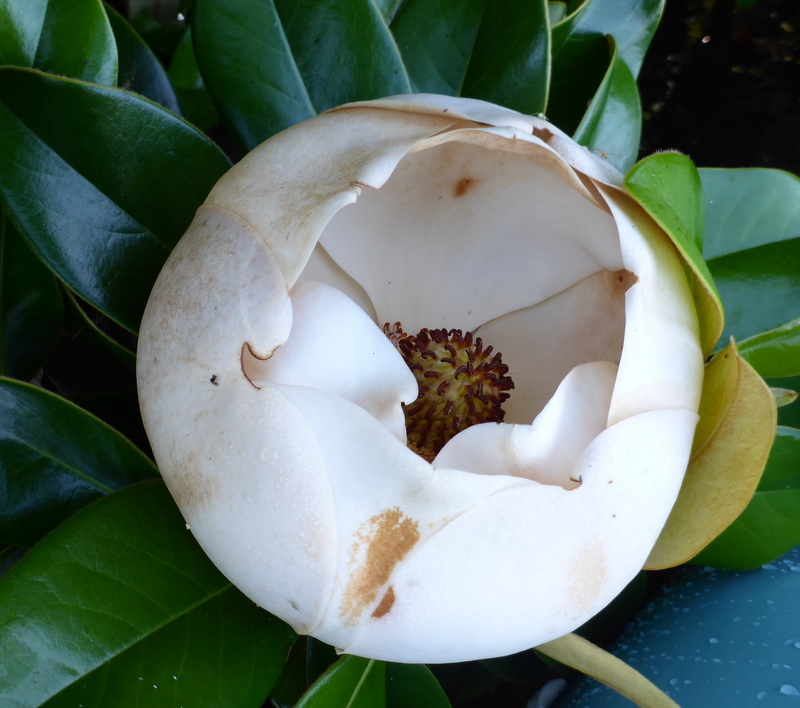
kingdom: Plantae
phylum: Tracheophyta
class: Magnoliopsida
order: Magnoliales
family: Magnoliaceae
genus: Magnolia
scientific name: Magnolia grandiflora
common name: Southern magnolia
